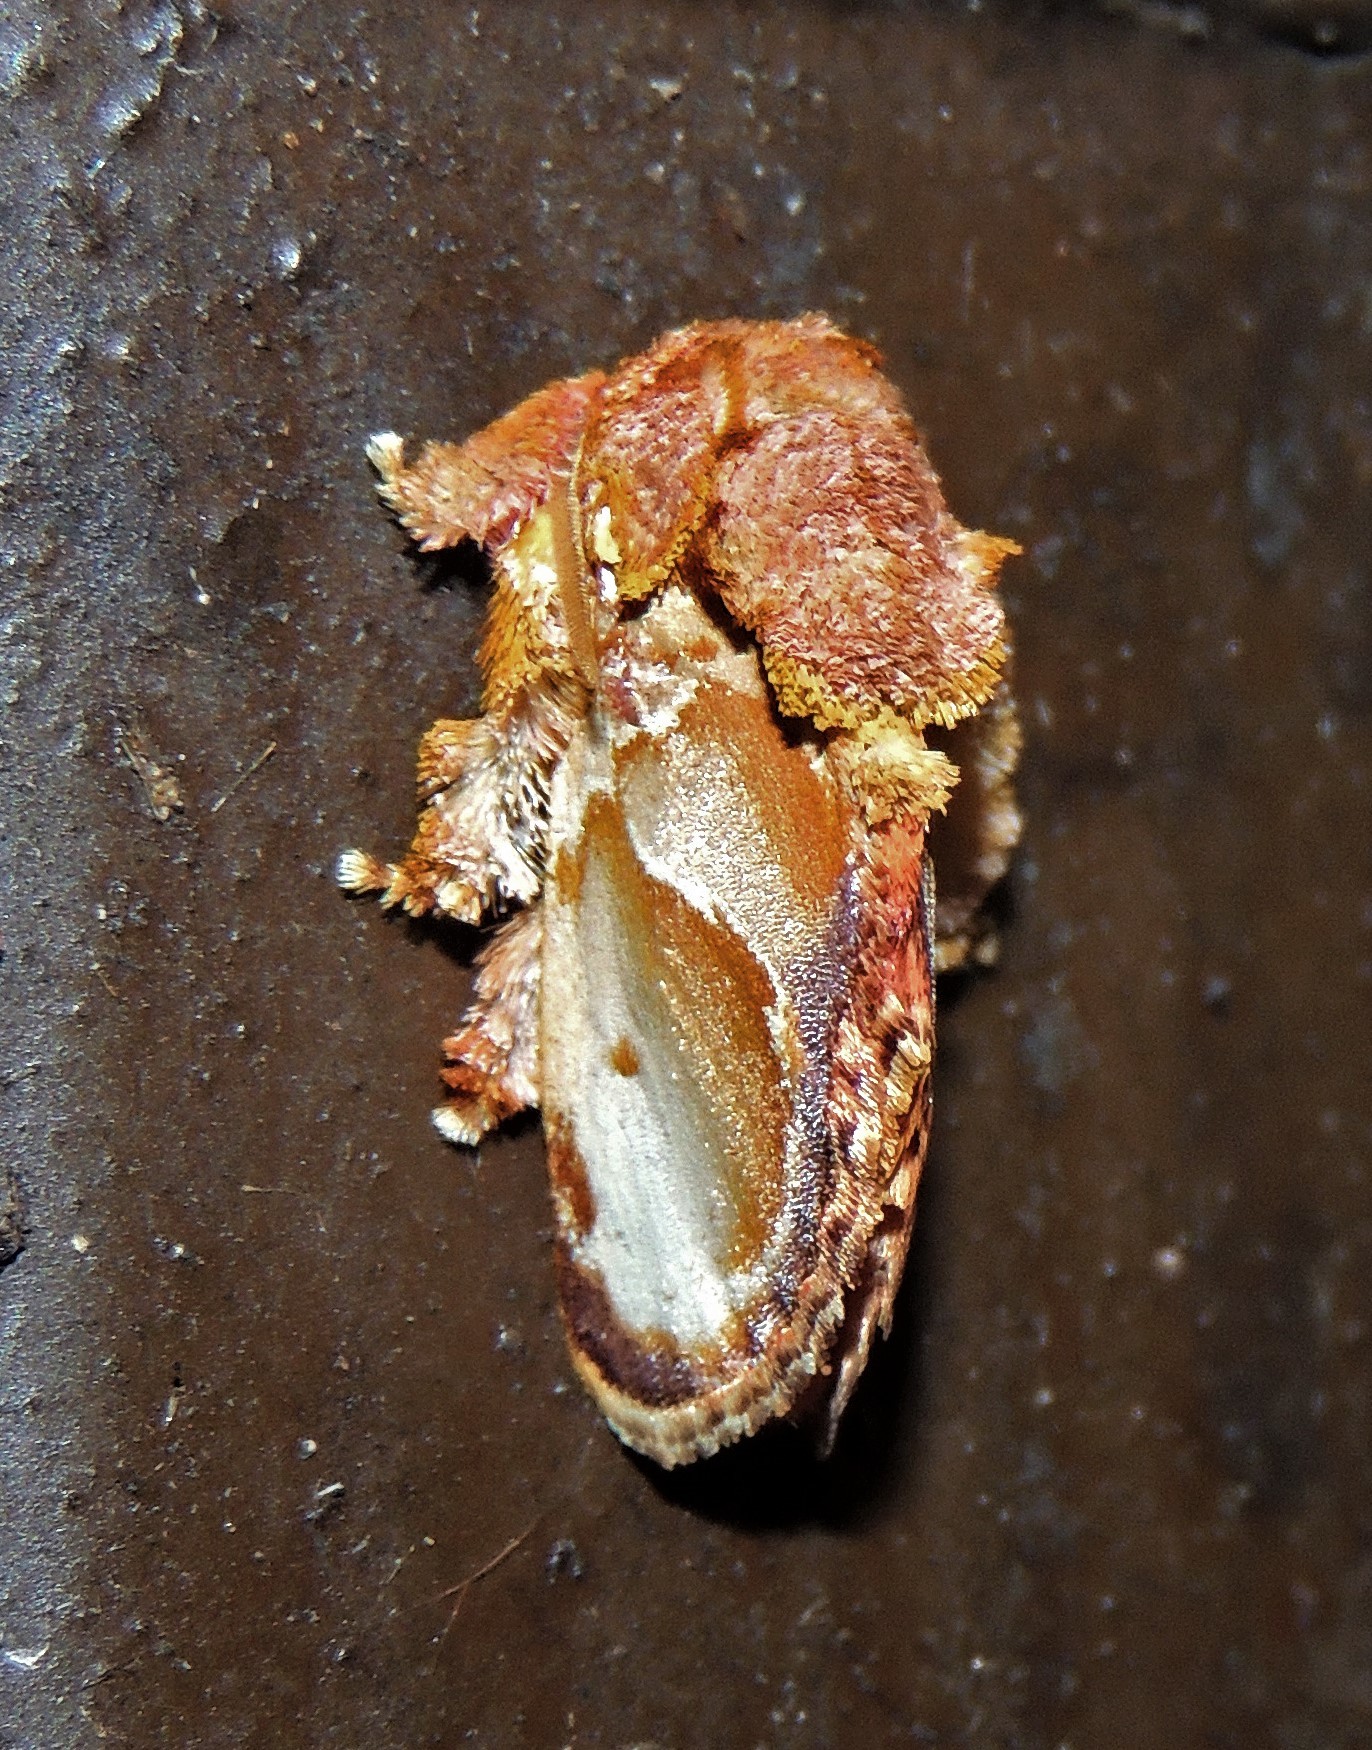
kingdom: Animalia
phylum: Arthropoda
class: Insecta
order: Lepidoptera
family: Limacodidae
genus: Euphobetron
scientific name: Euphobetron cypris
